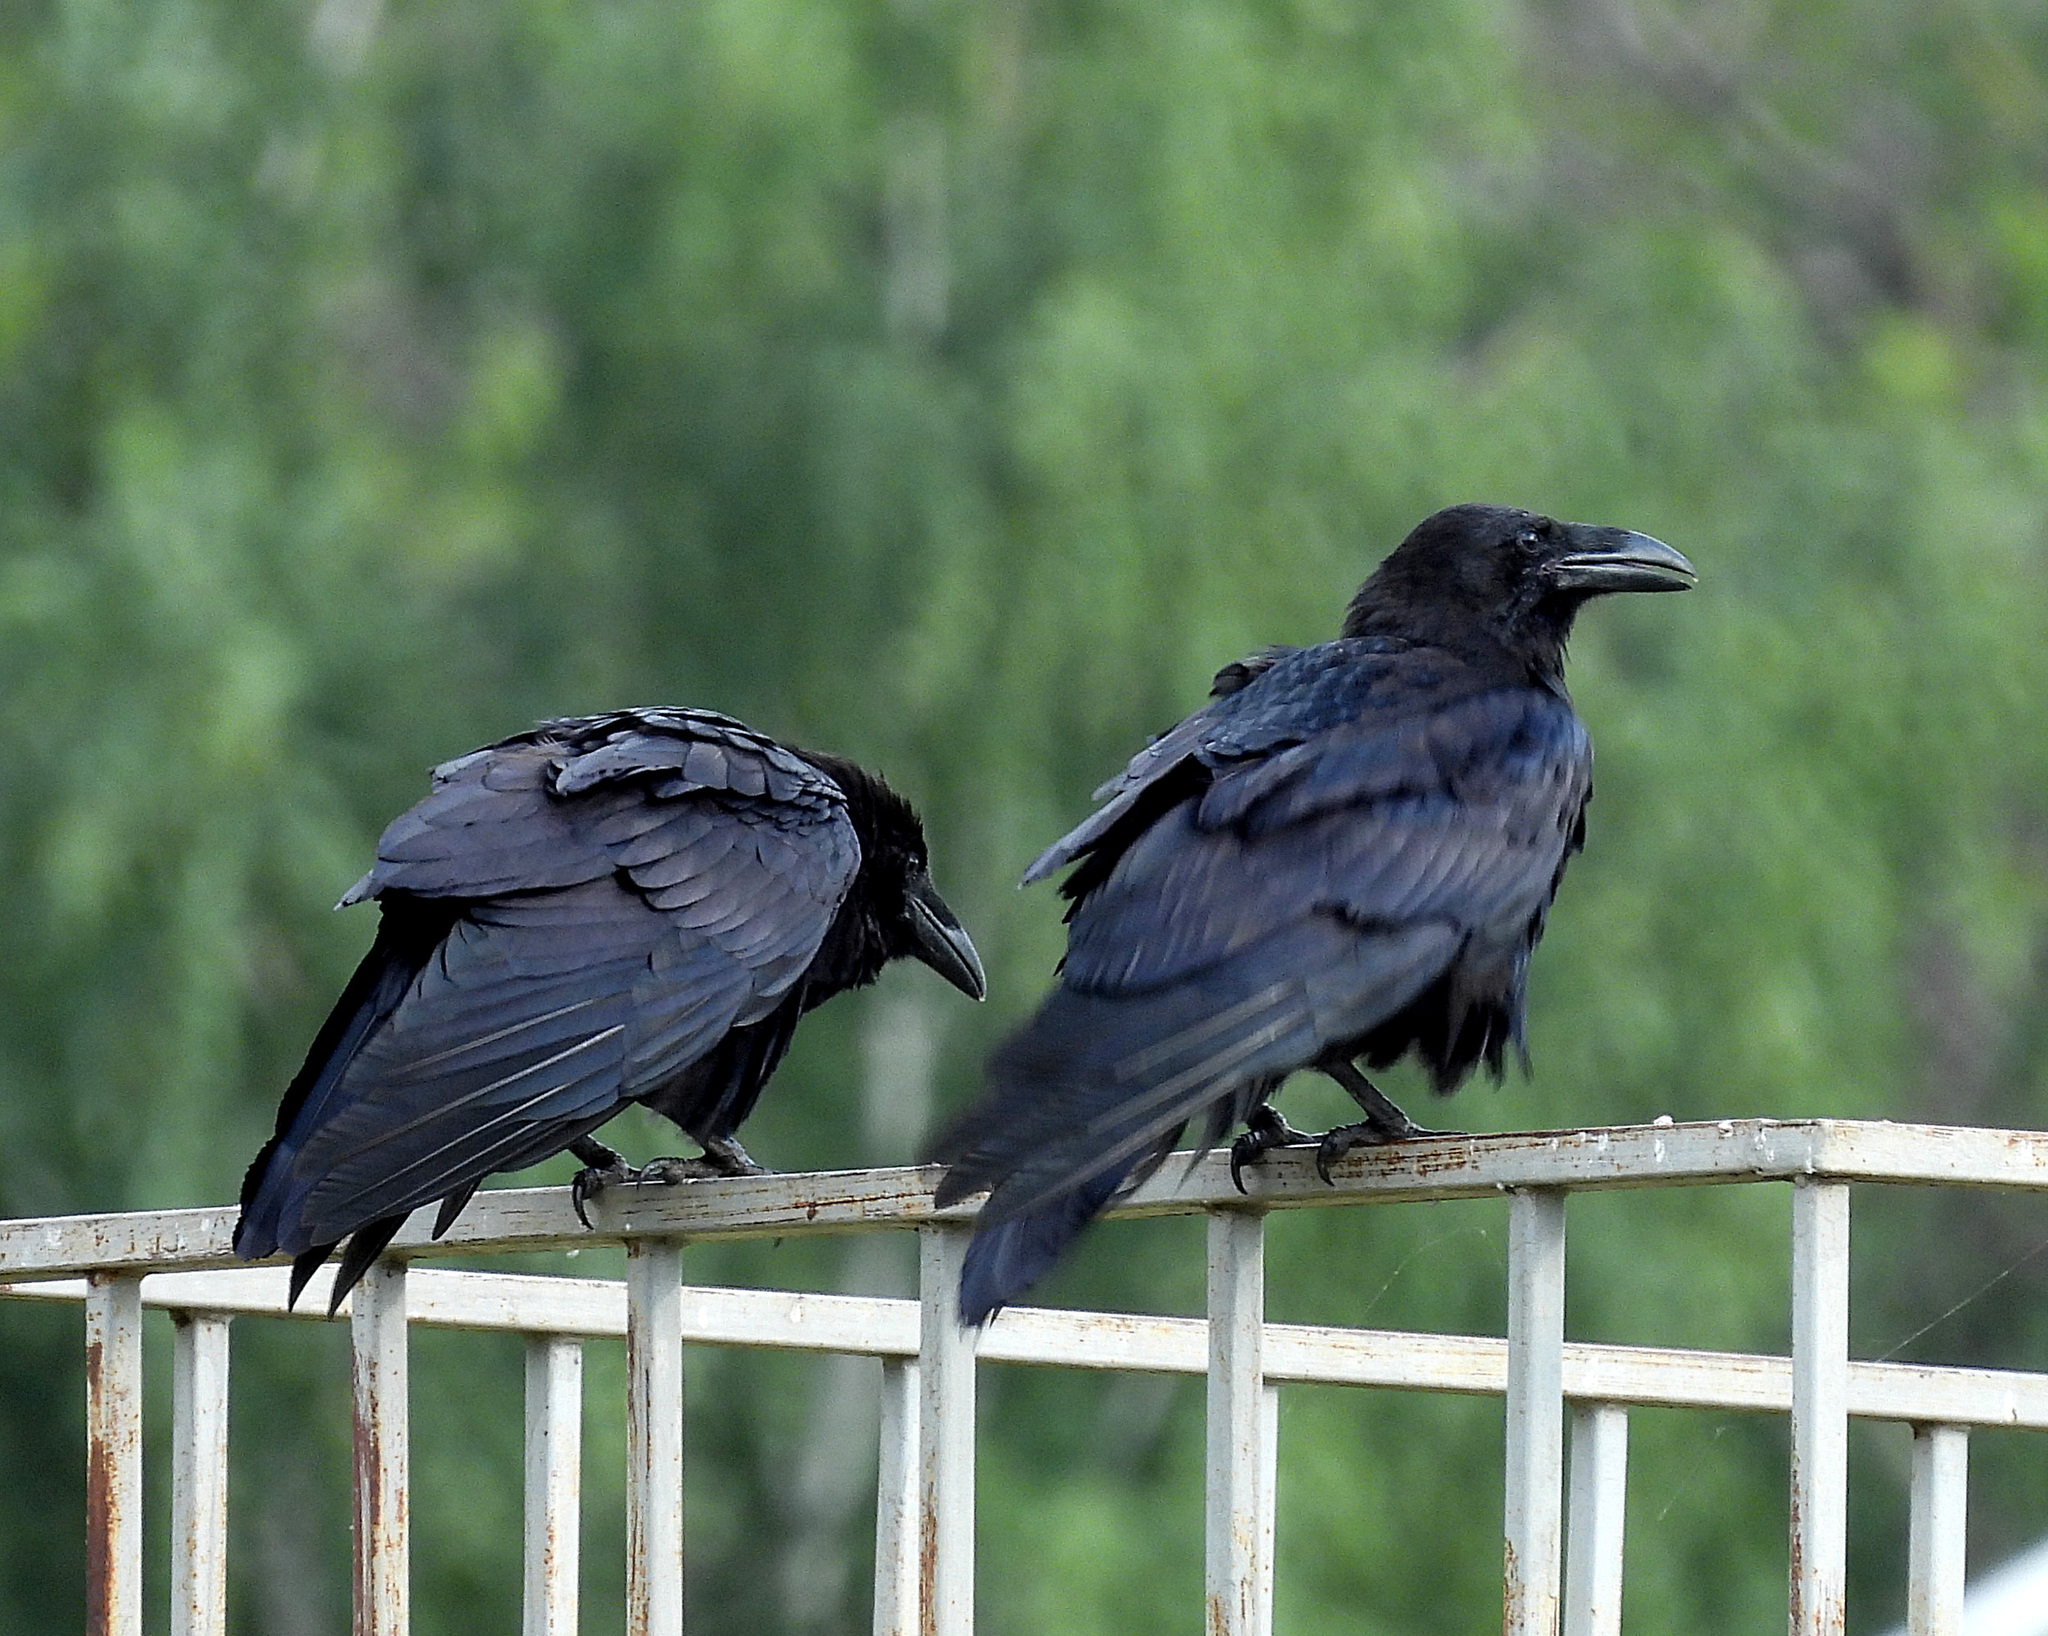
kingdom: Animalia
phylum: Chordata
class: Aves
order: Passeriformes
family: Corvidae
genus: Corvus
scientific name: Corvus corax
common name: Common raven
